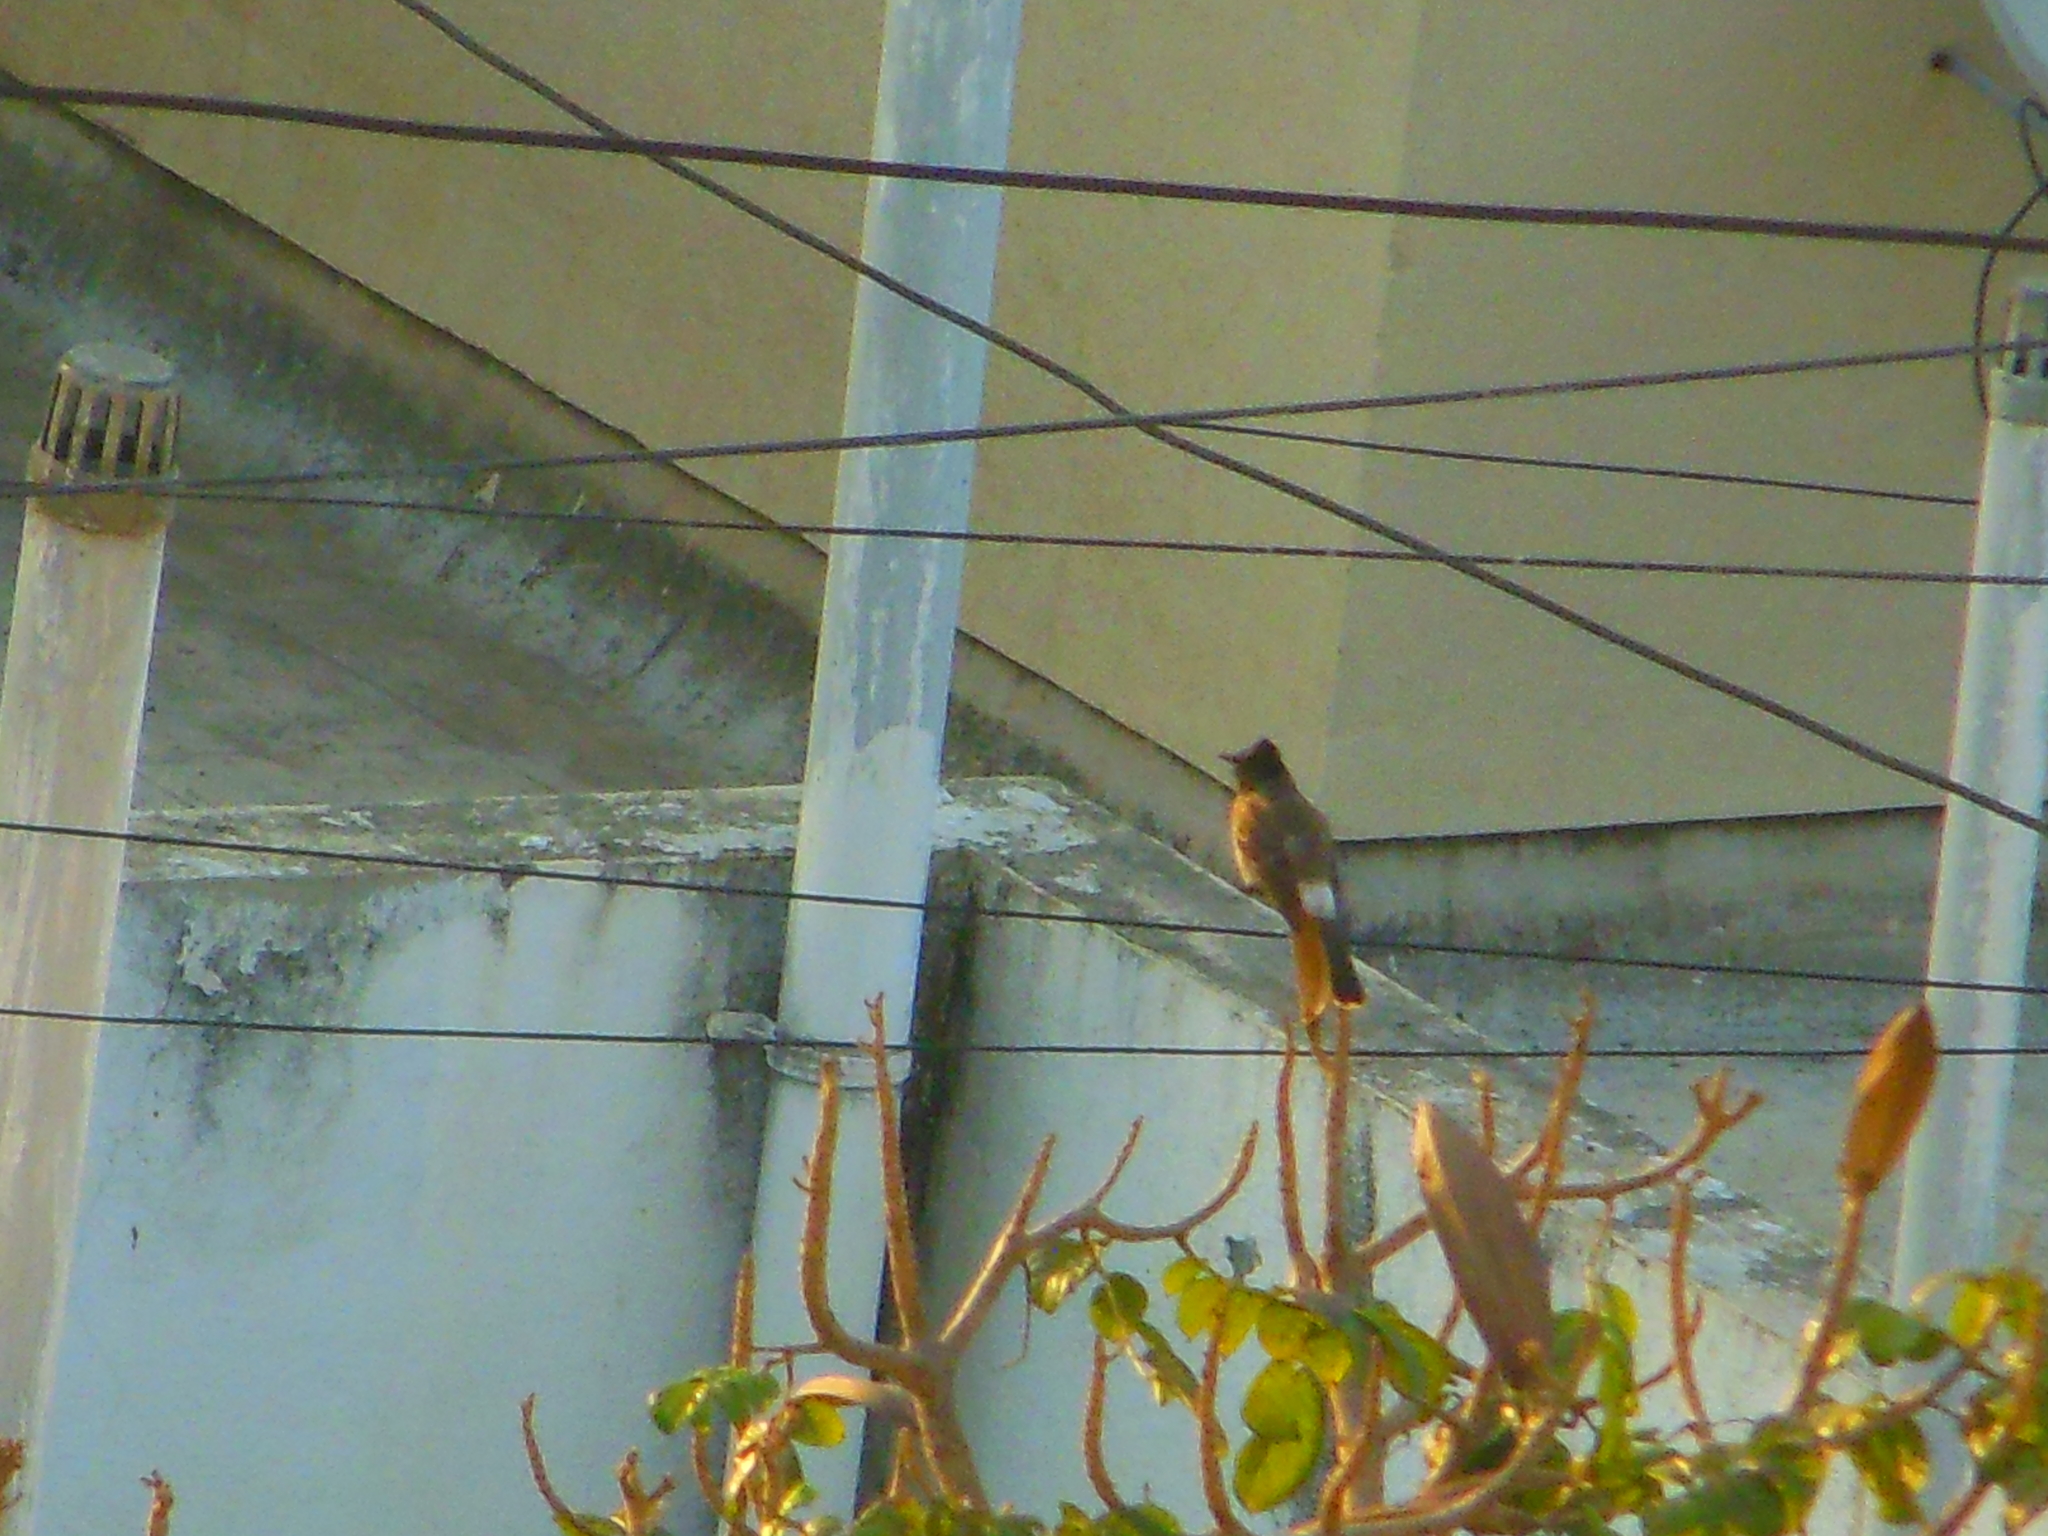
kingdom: Animalia
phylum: Chordata
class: Aves
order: Passeriformes
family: Pycnonotidae
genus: Pycnonotus
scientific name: Pycnonotus cafer
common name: Red-vented bulbul
